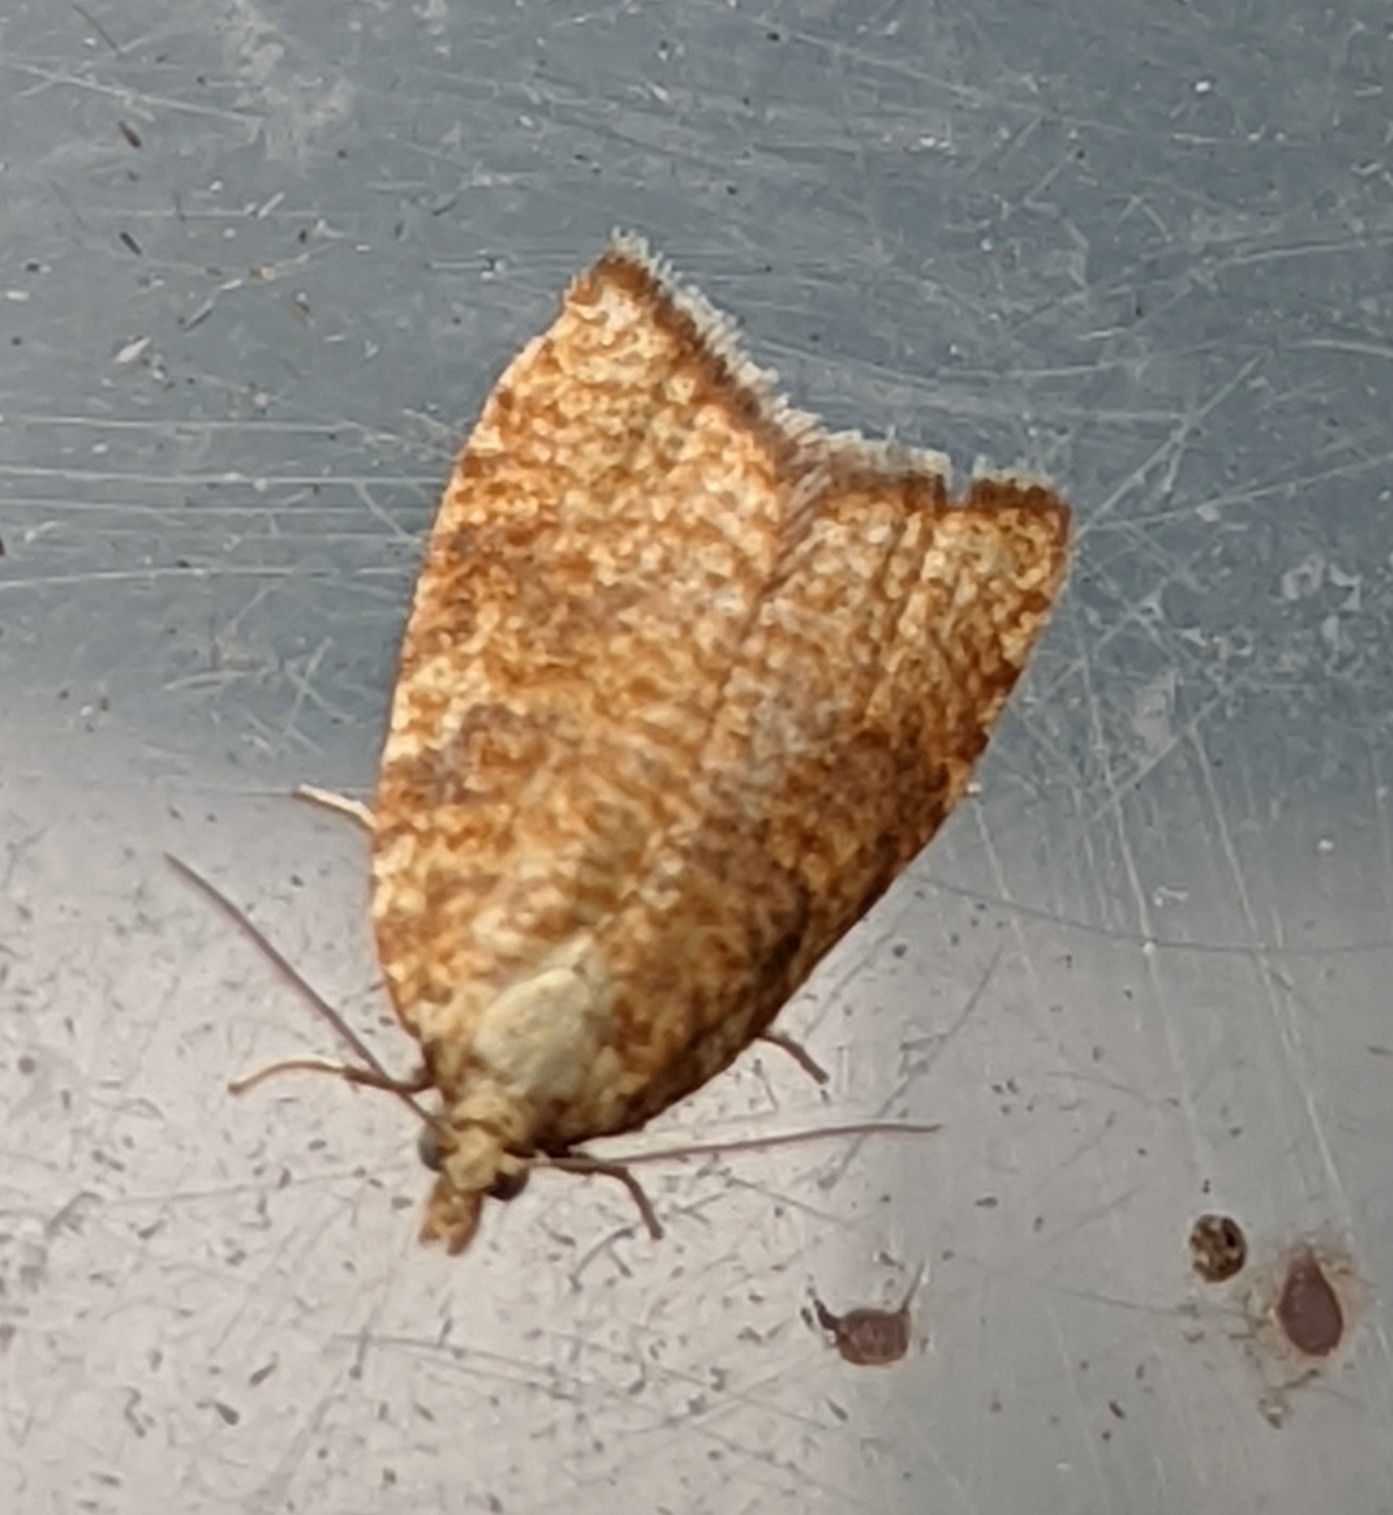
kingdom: Animalia
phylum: Arthropoda
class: Insecta
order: Lepidoptera
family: Tortricidae
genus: Aleimma
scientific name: Aleimma loeflingiana
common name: Yellow oak button
